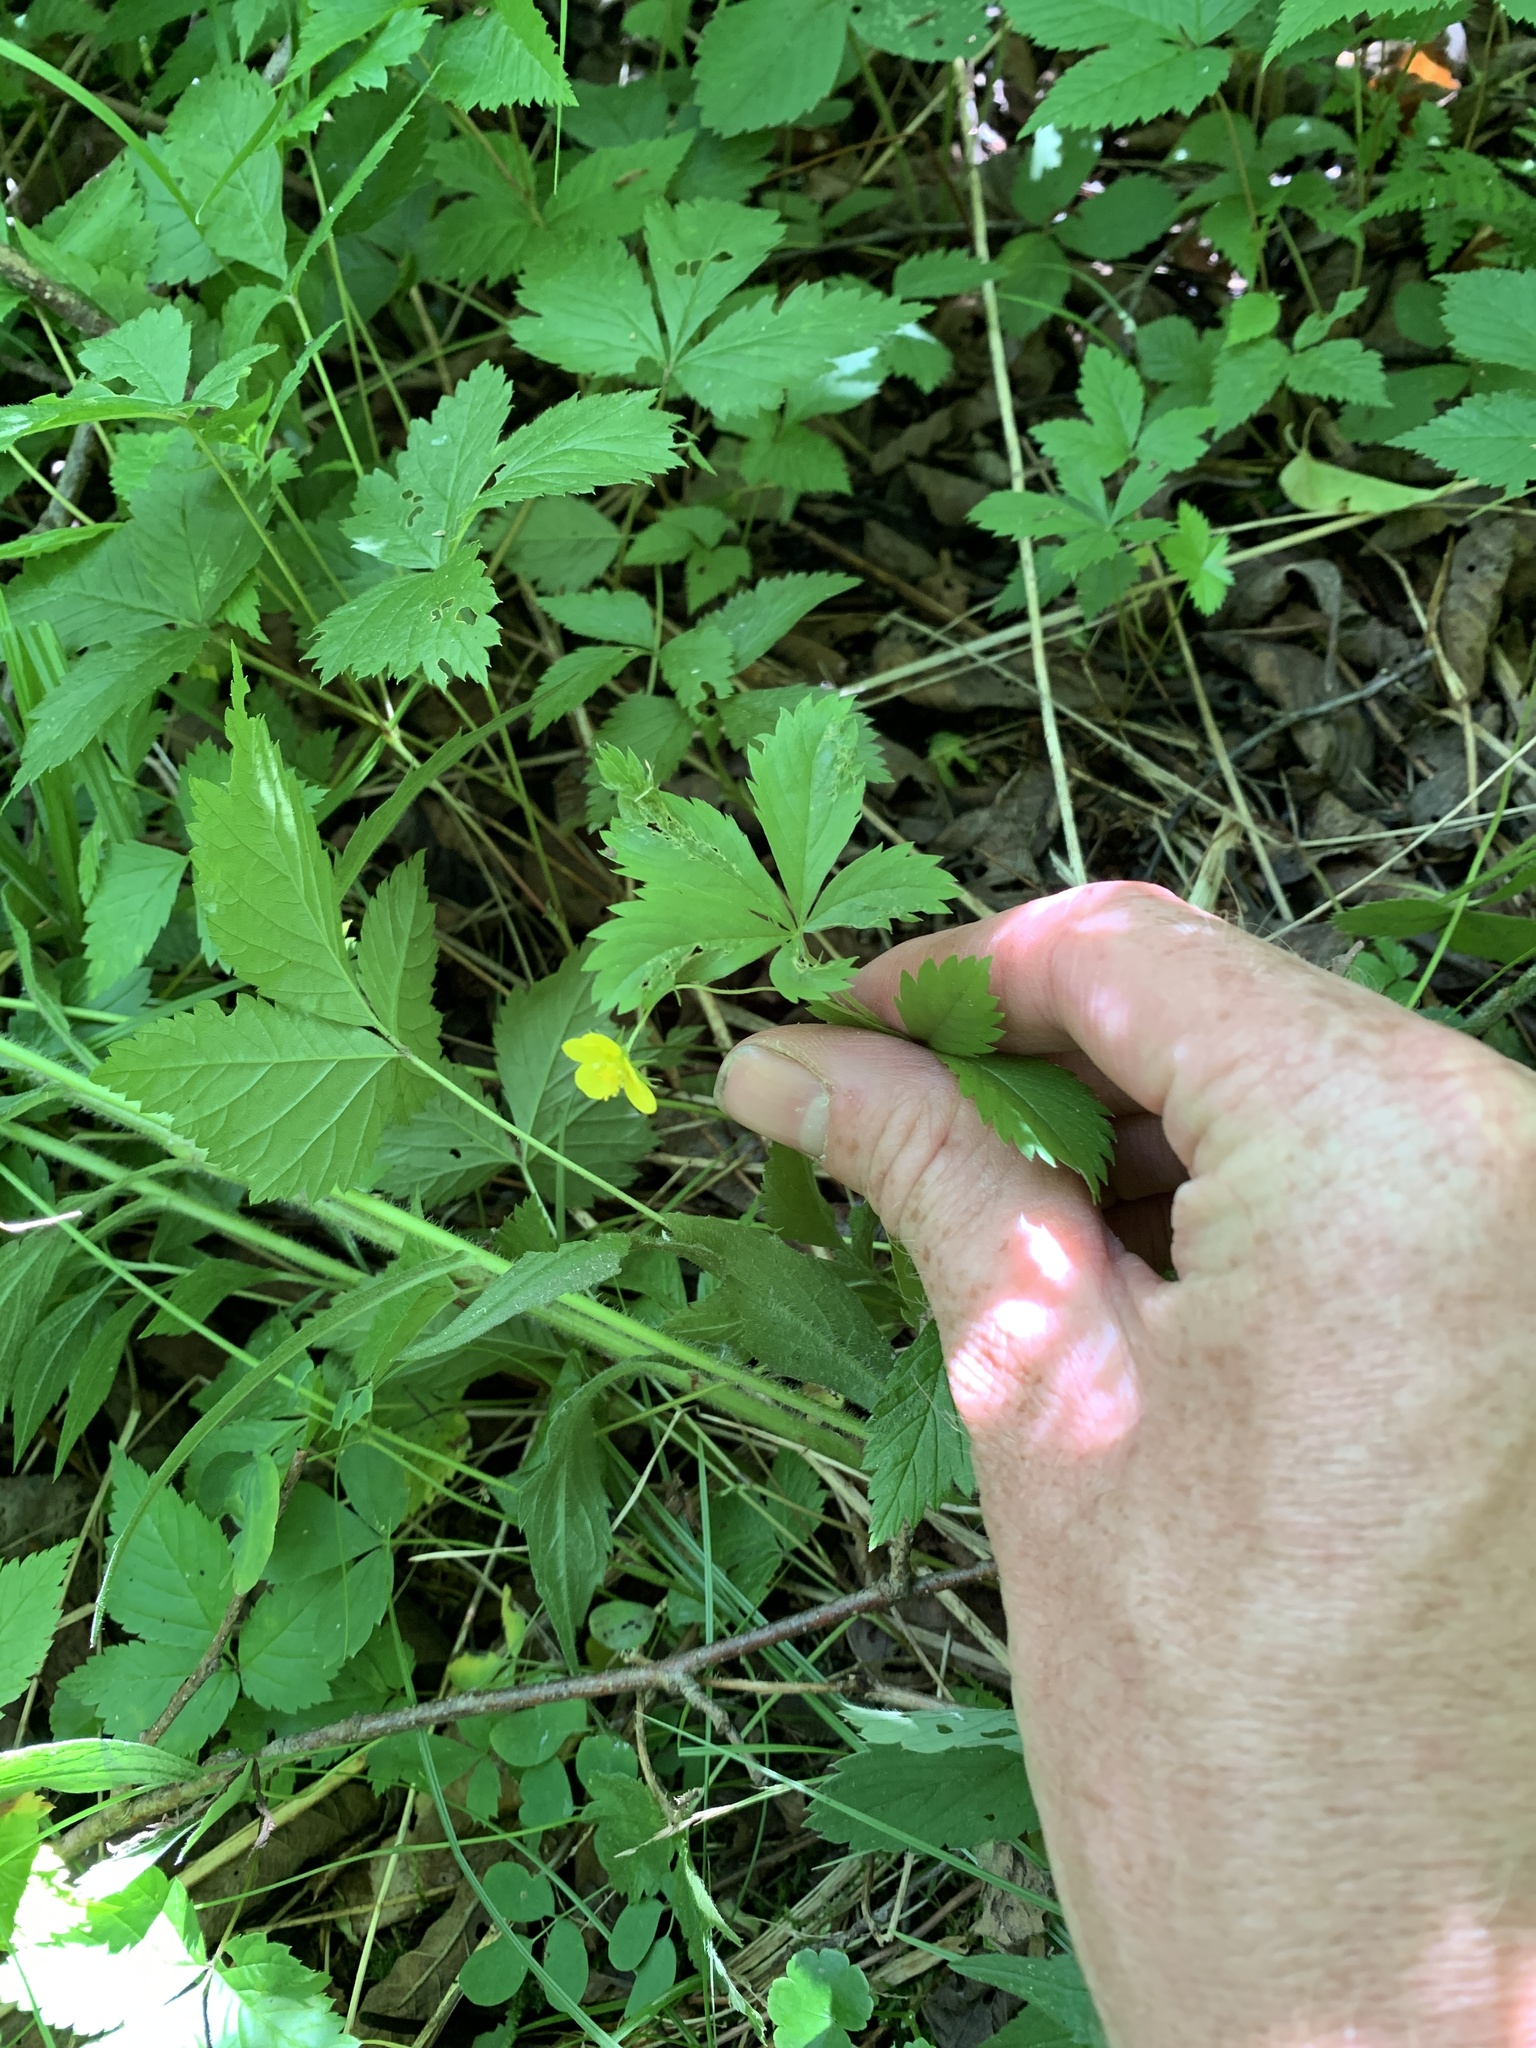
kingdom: Plantae
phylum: Tracheophyta
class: Magnoliopsida
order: Rosales
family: Rosaceae
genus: Potentilla
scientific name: Potentilla simplex
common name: Old field cinquefoil
